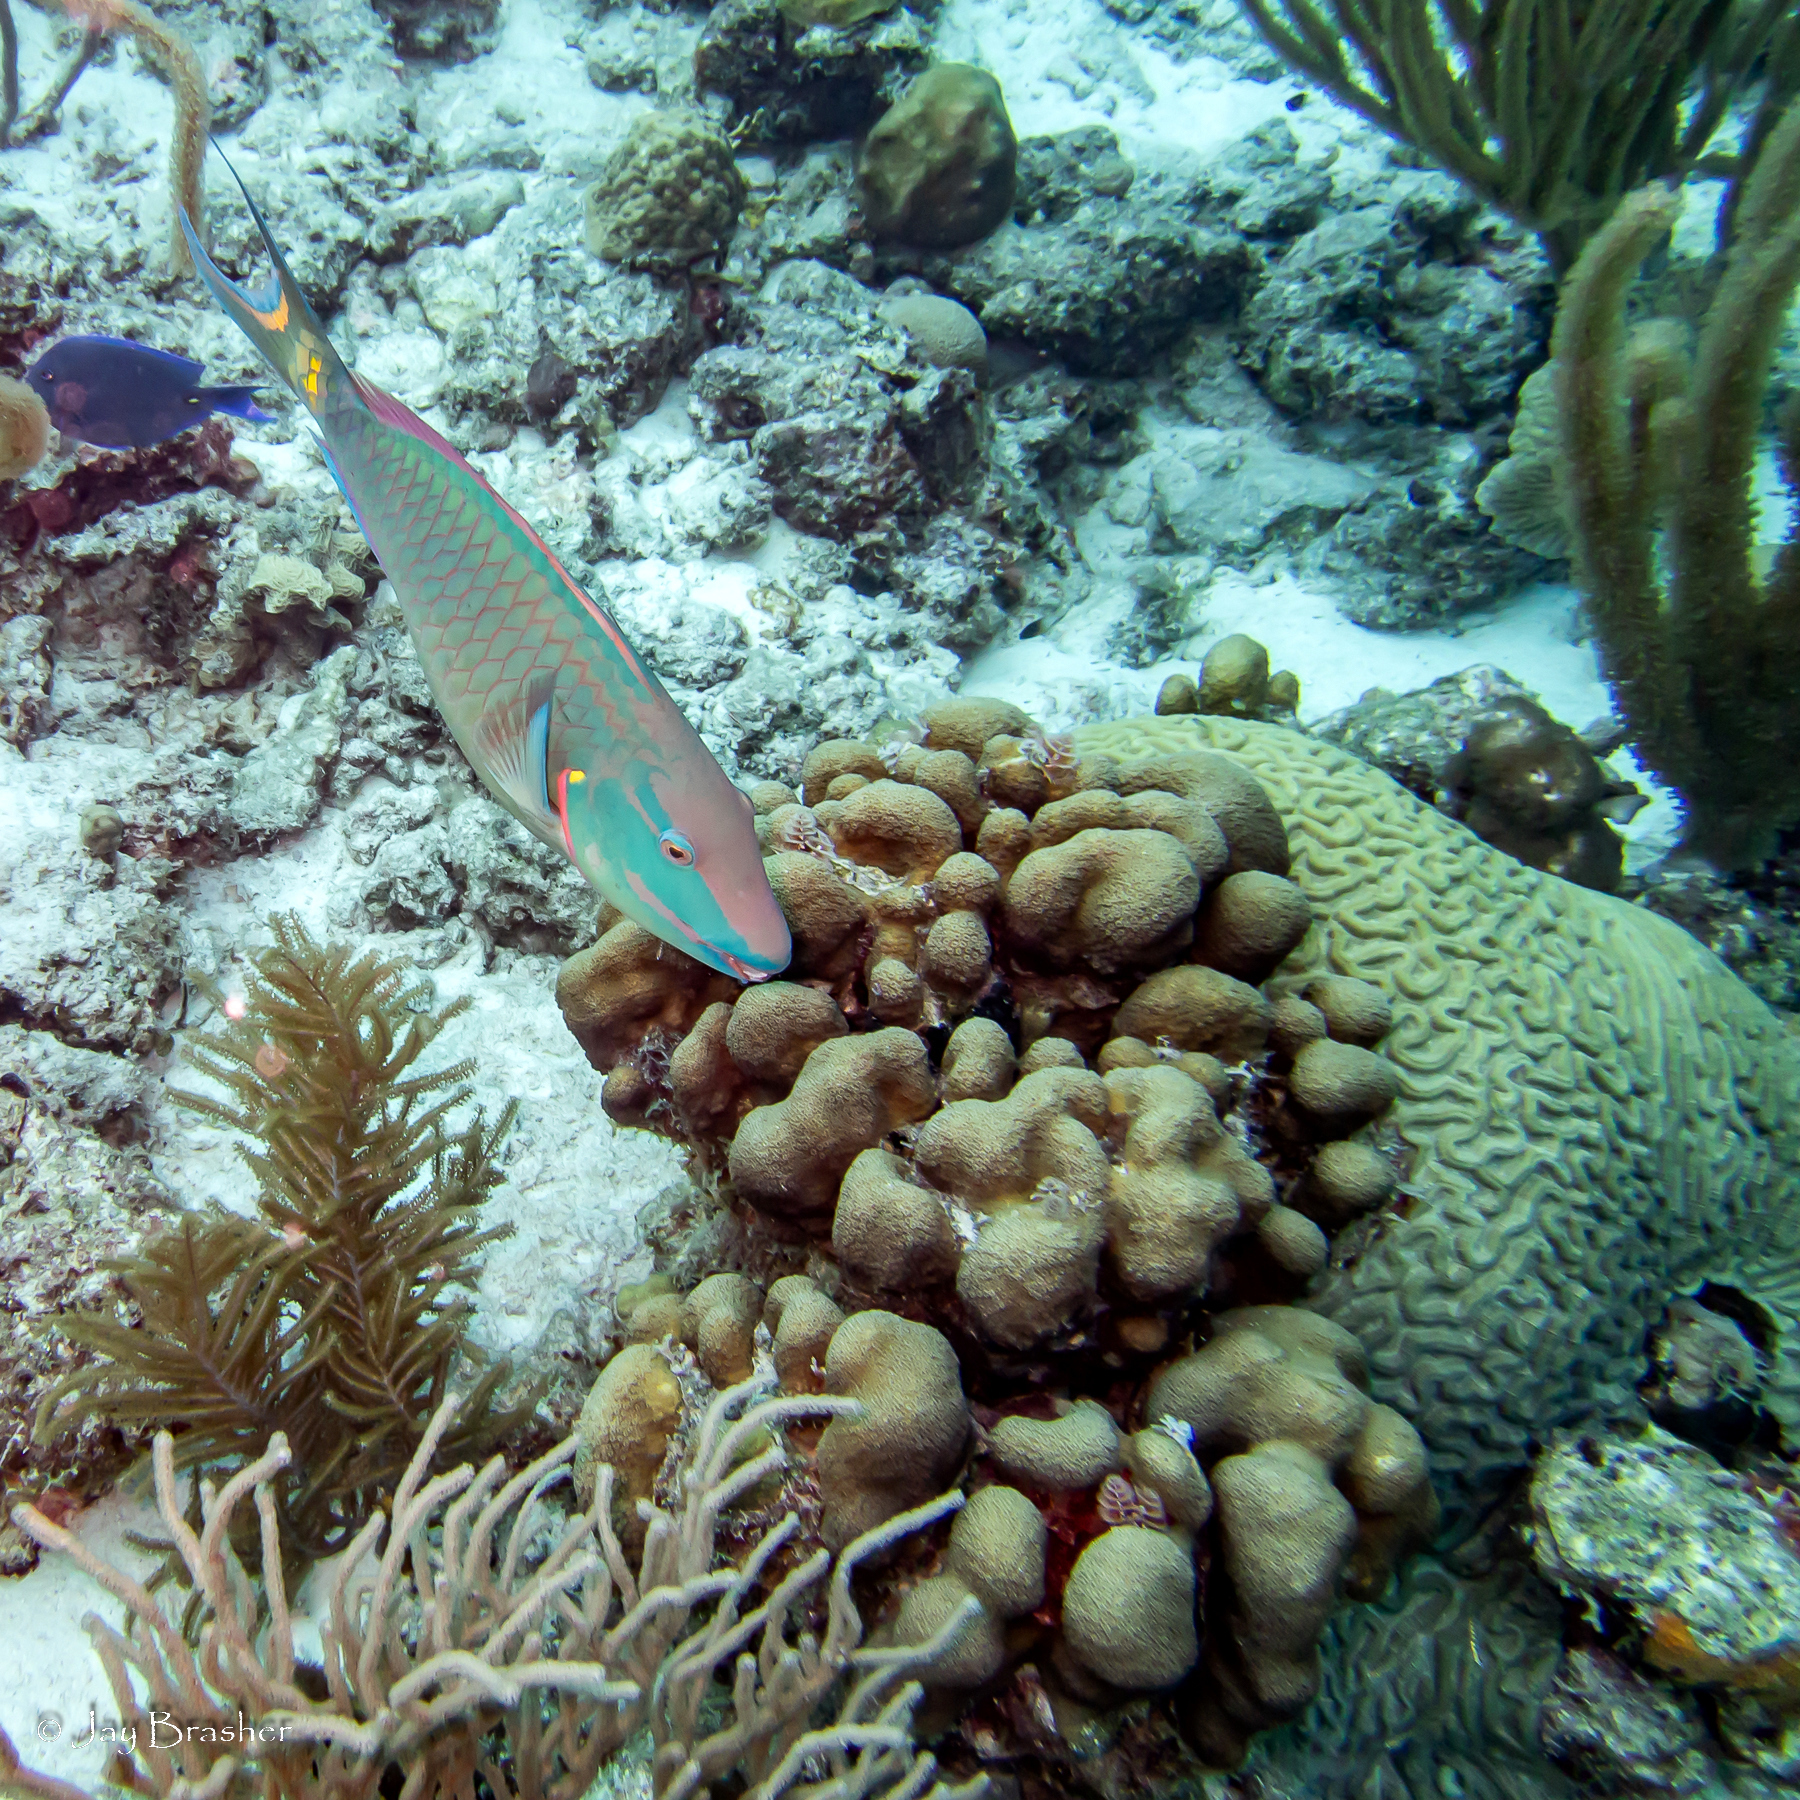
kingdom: Animalia
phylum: Cnidaria
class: Anthozoa
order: Scleractinia
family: Merulinidae
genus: Orbicella
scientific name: Orbicella annularis
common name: Boulder star coral
